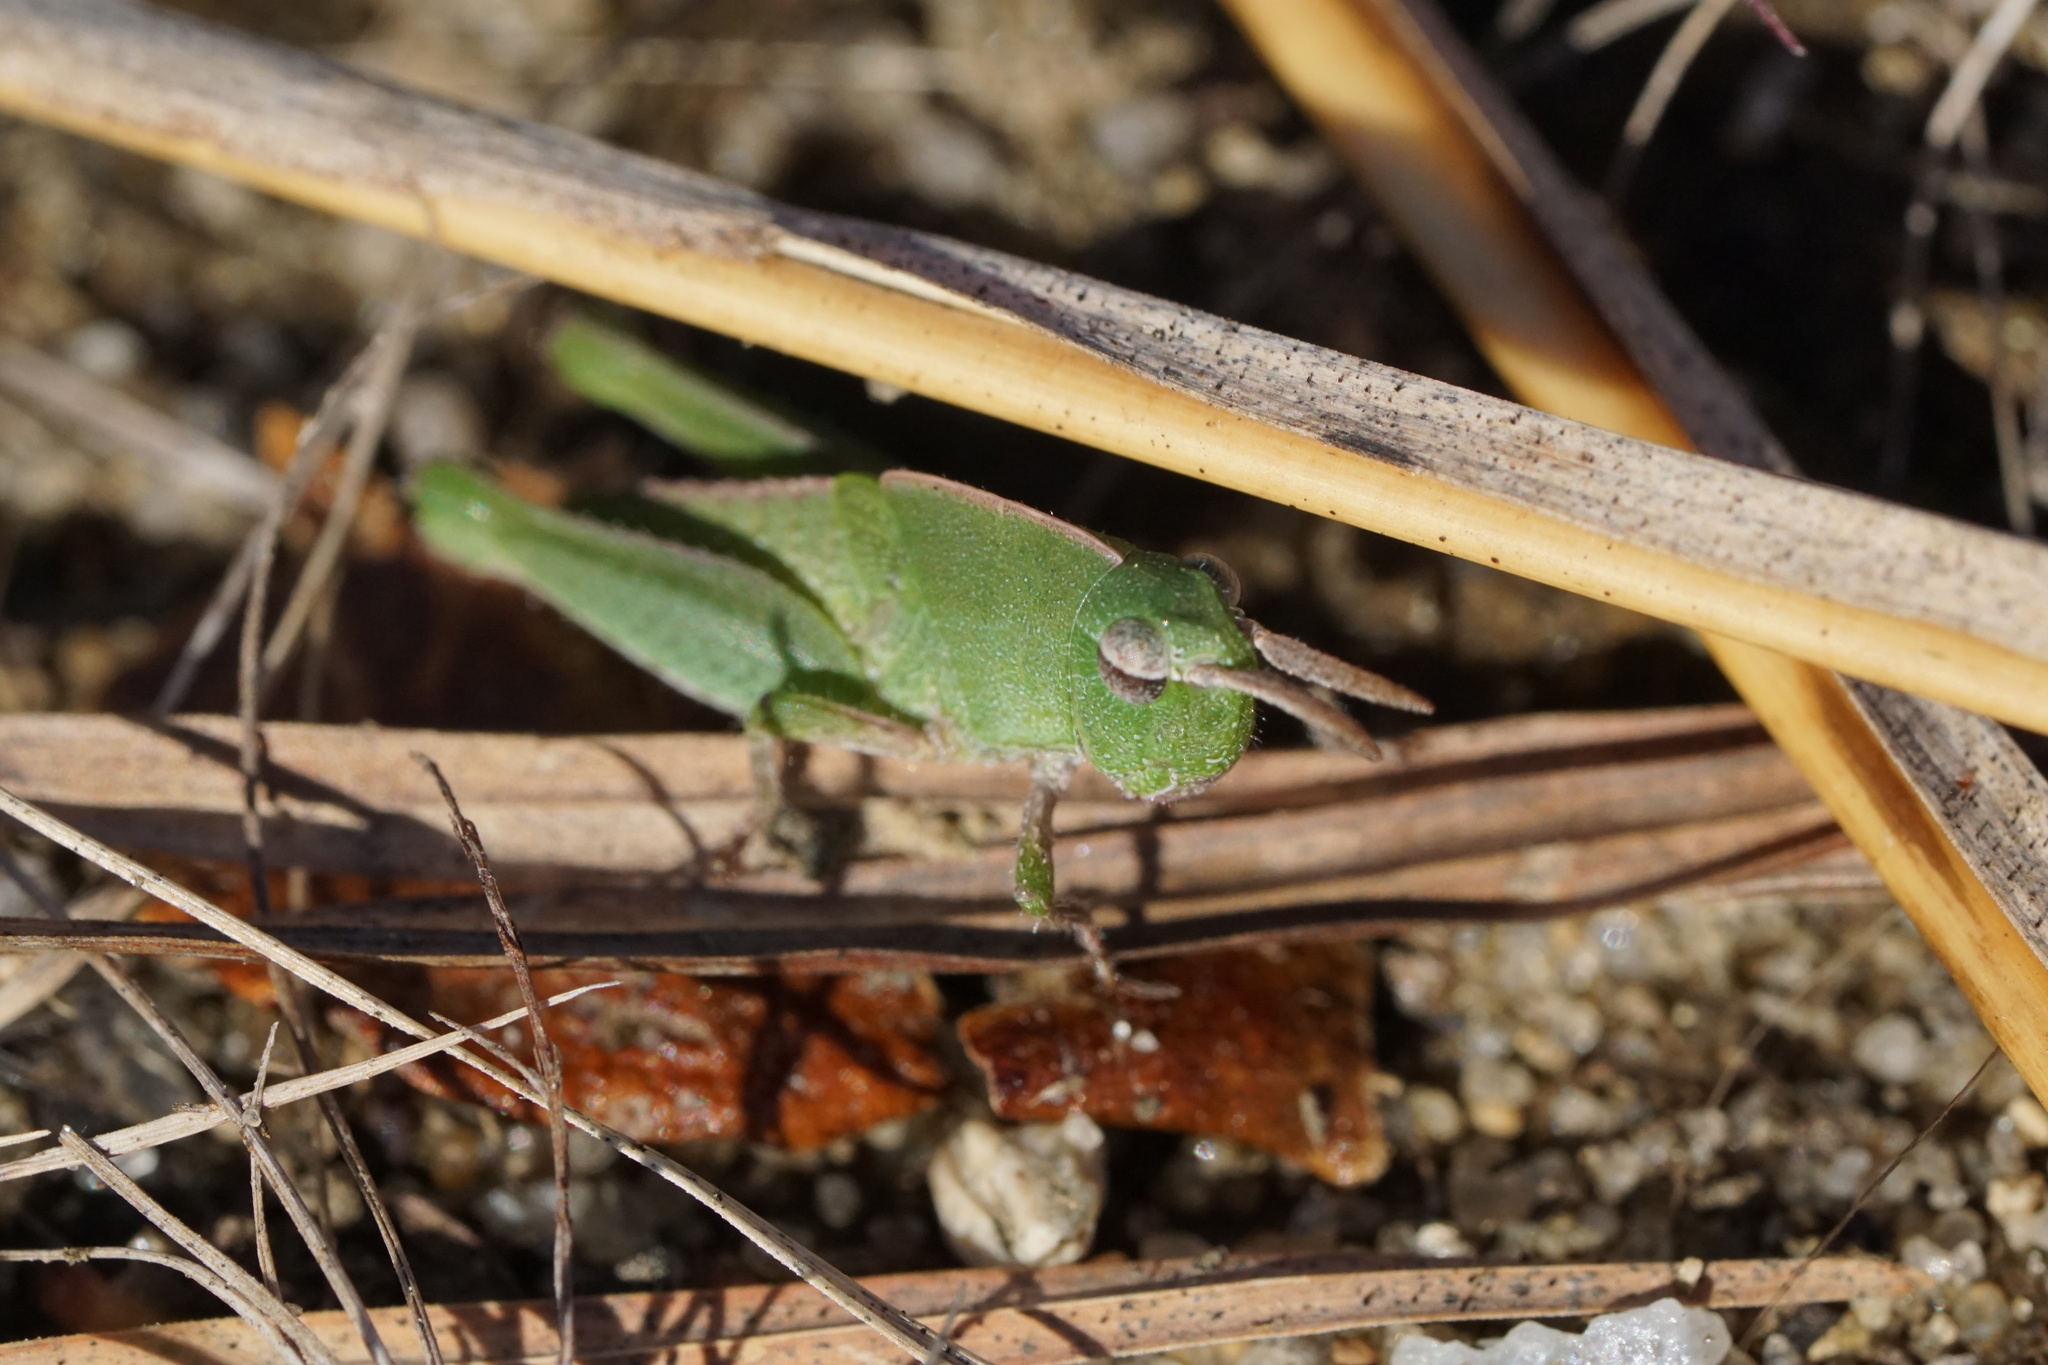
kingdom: Animalia
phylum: Arthropoda
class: Insecta
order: Orthoptera
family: Acrididae
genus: Chortophaga
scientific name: Chortophaga viridifasciata
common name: Green-striped grasshopper
